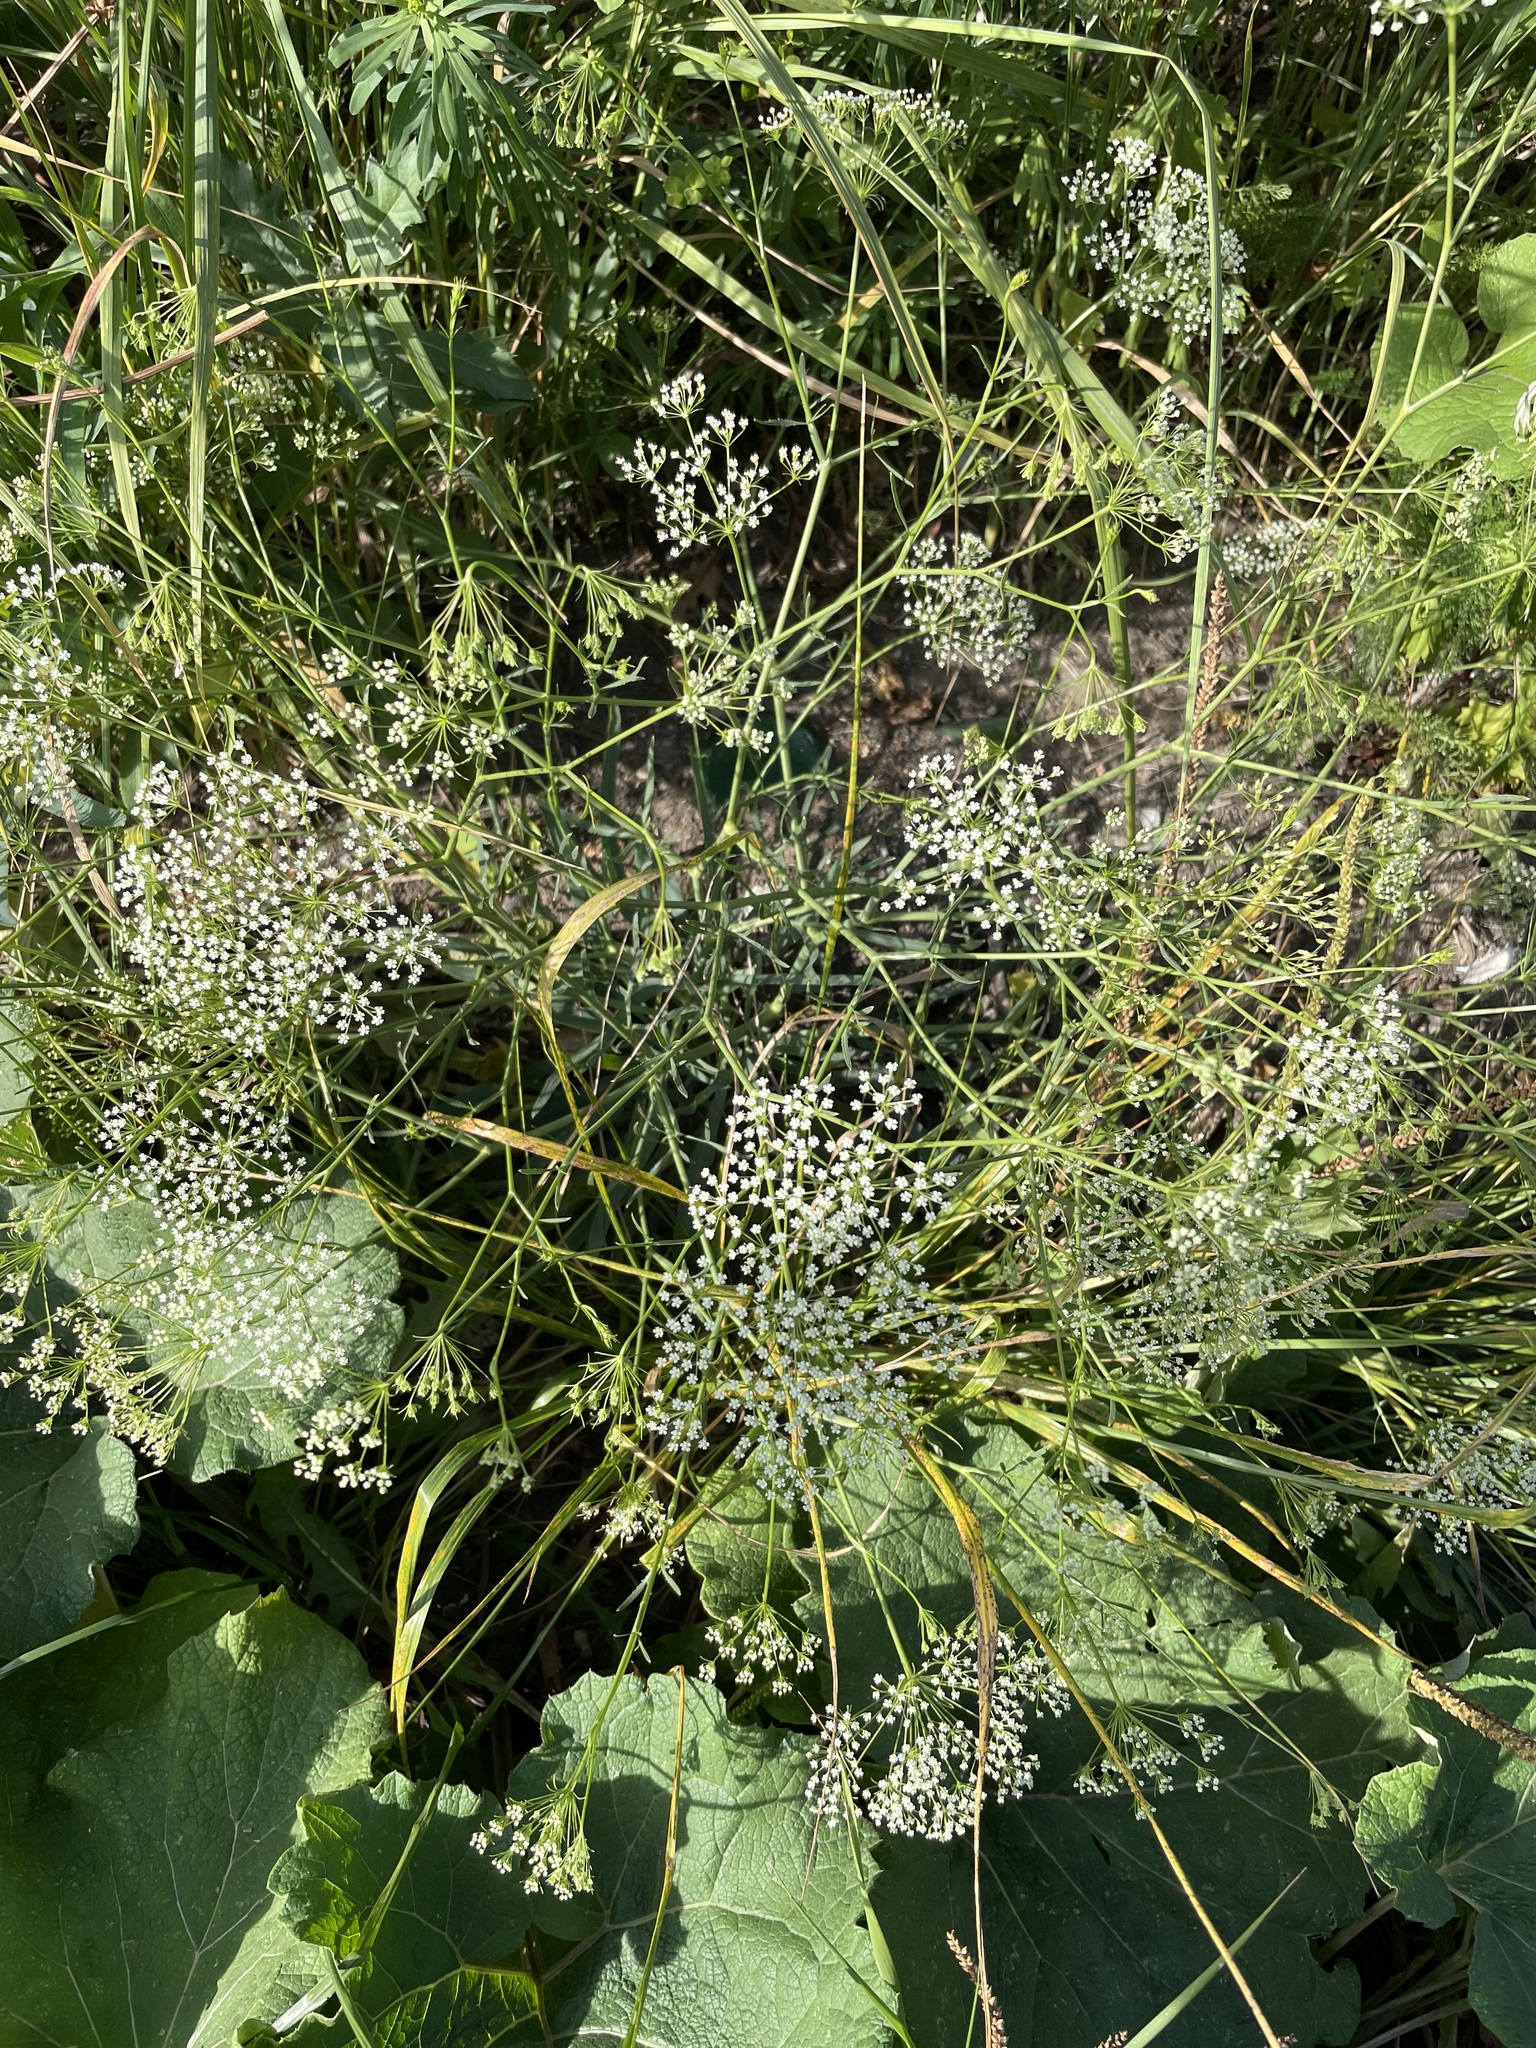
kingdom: Plantae
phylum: Tracheophyta
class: Magnoliopsida
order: Apiales
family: Apiaceae
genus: Falcaria
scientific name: Falcaria vulgaris
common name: Longleaf
